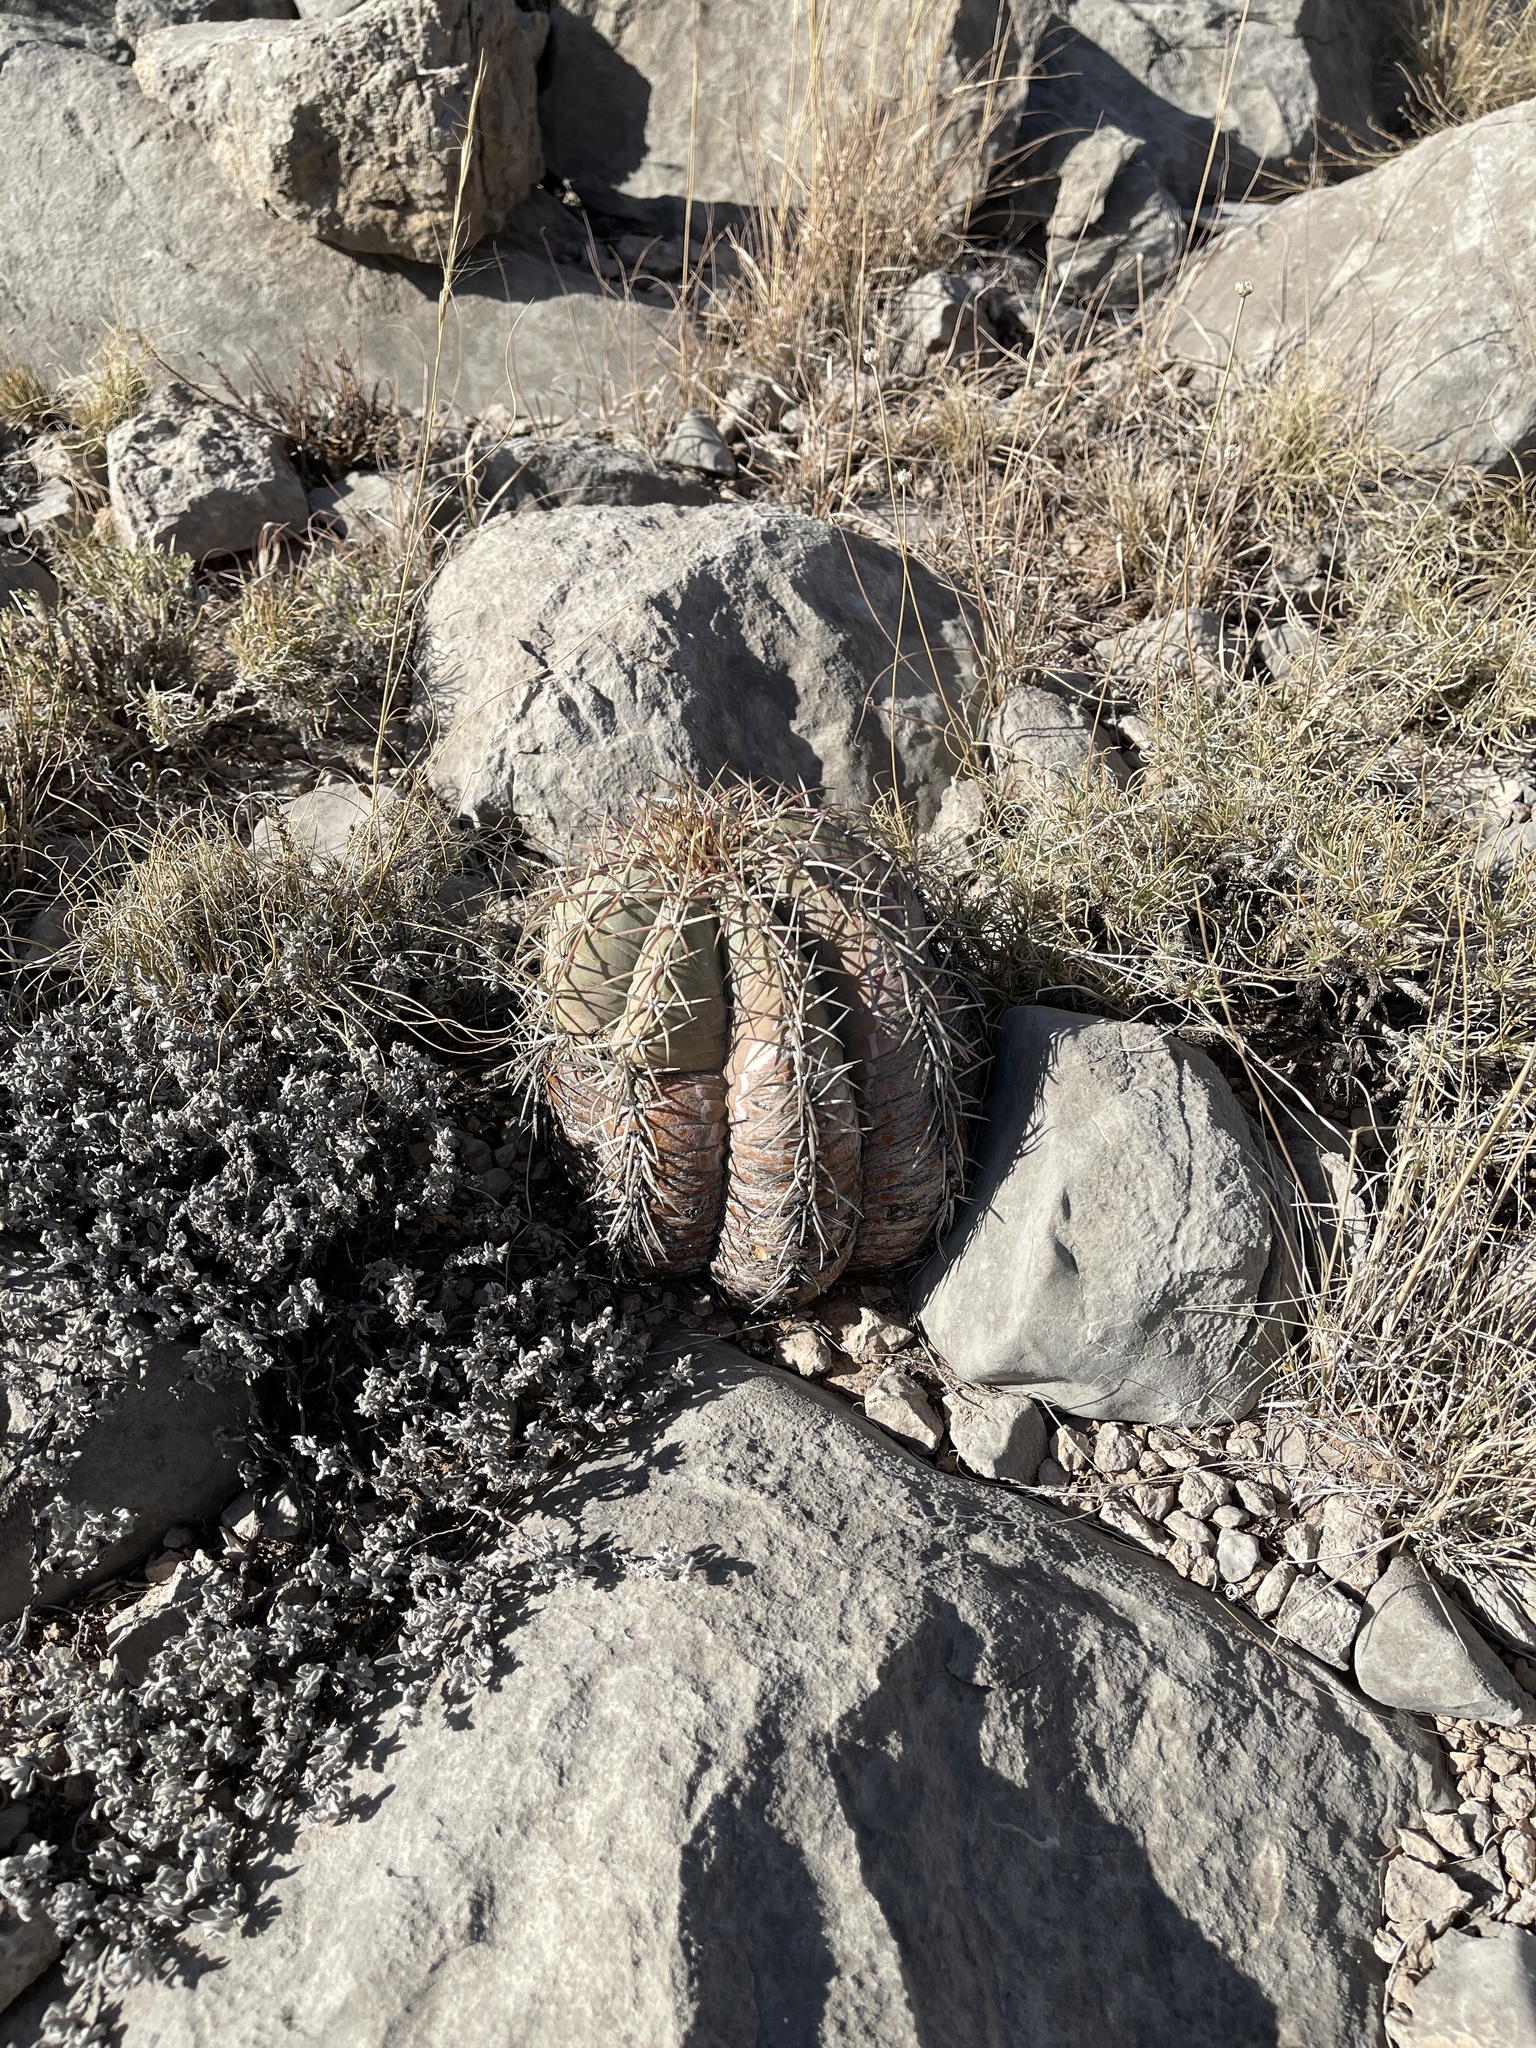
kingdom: Plantae
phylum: Tracheophyta
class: Magnoliopsida
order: Caryophyllales
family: Cactaceae
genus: Echinocactus
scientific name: Echinocactus horizonthalonius
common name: Devilshead
